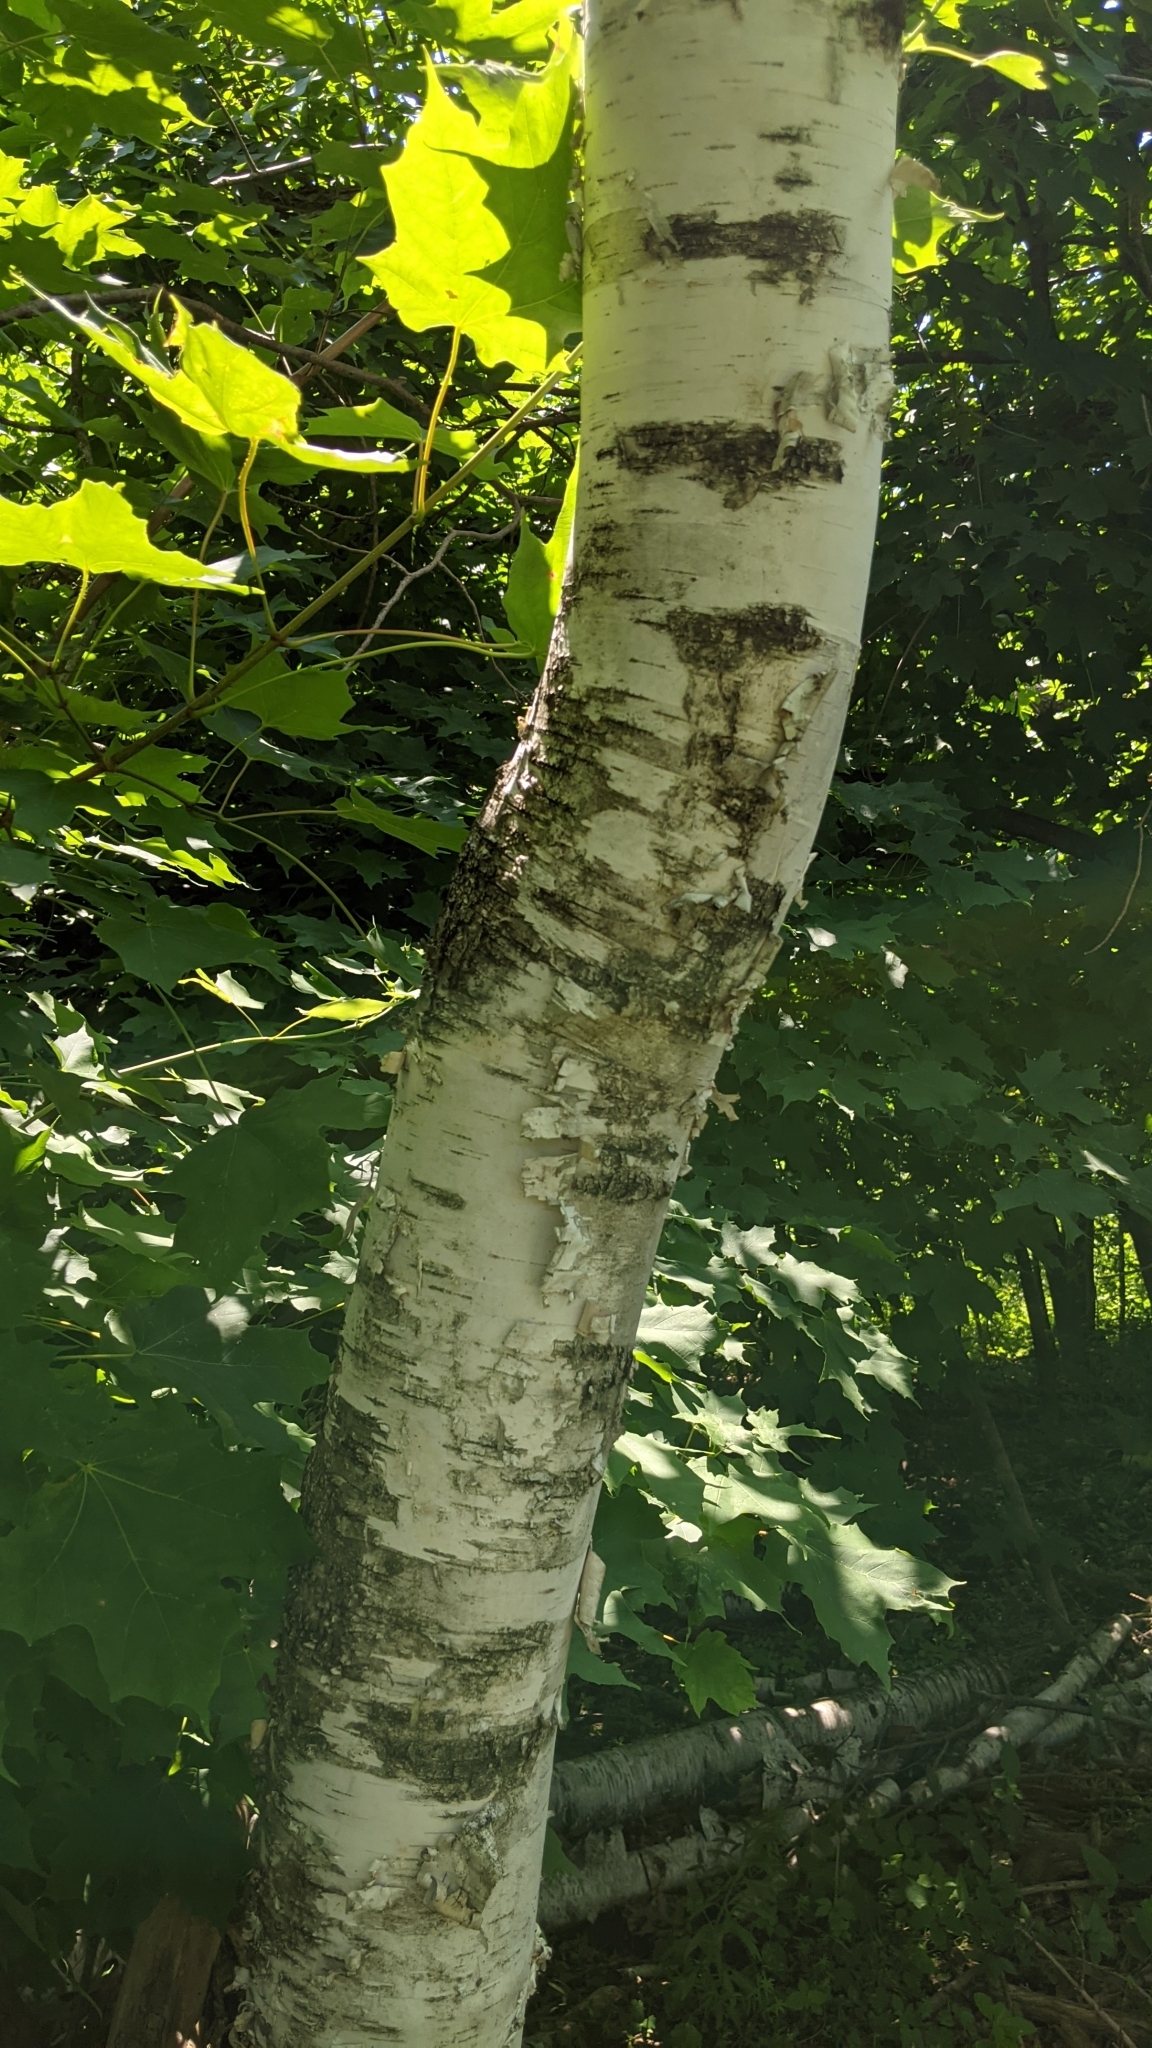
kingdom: Plantae
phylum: Tracheophyta
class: Magnoliopsida
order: Fagales
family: Betulaceae
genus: Betula
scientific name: Betula papyrifera
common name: Paper birch
